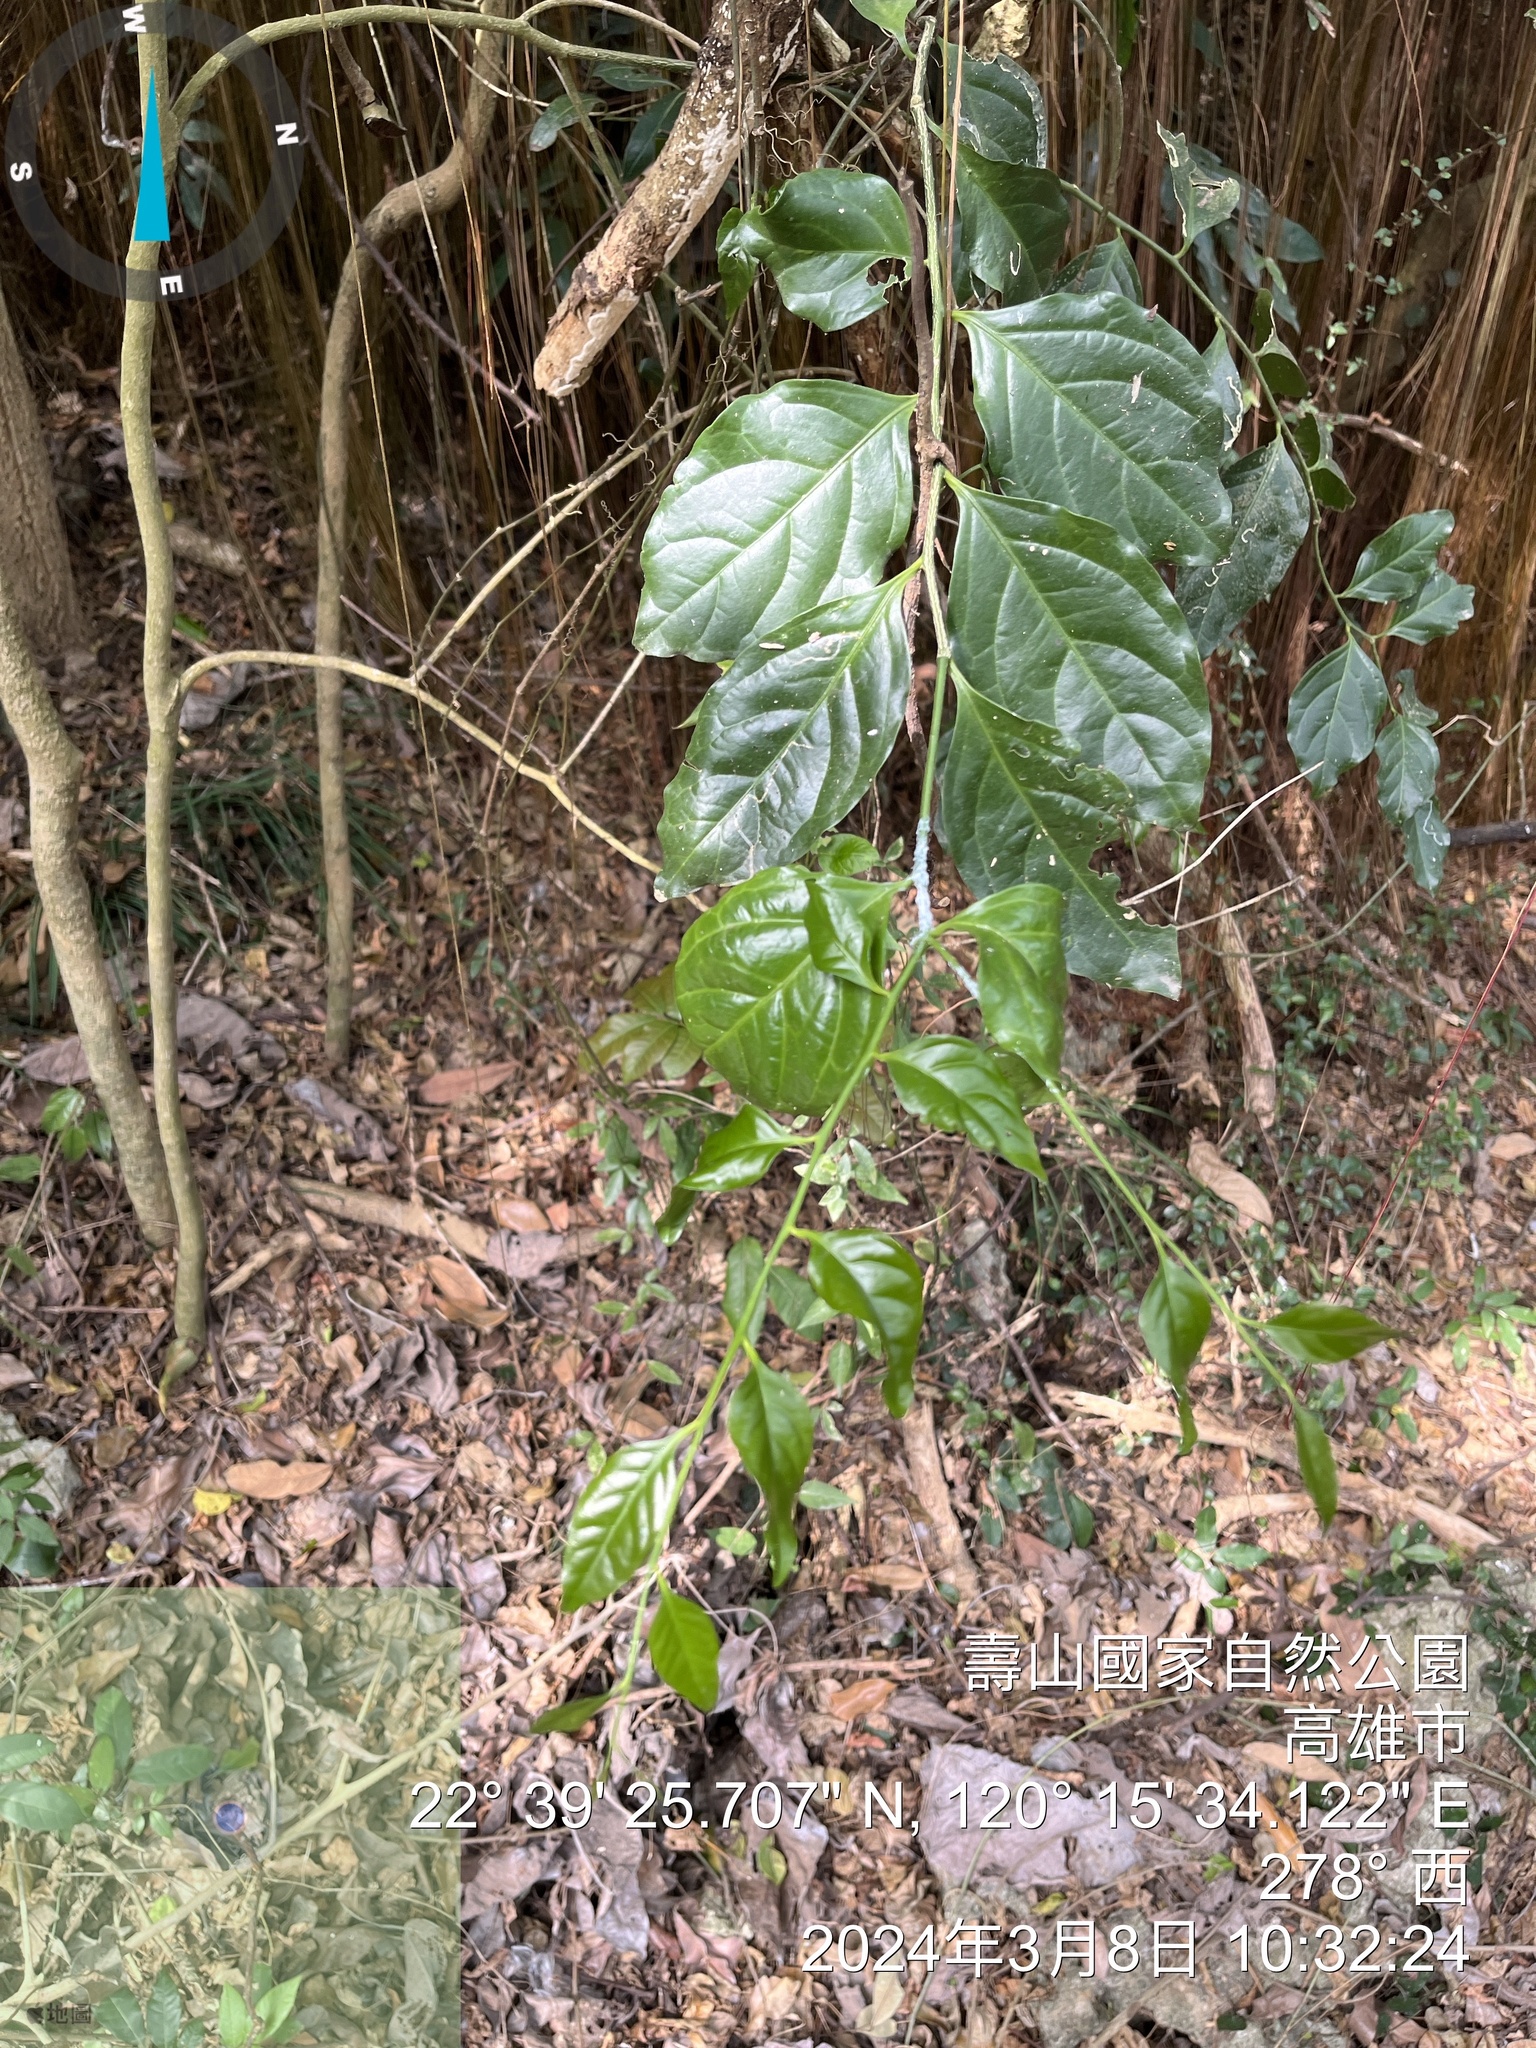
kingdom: Plantae
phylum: Tracheophyta
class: Magnoliopsida
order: Santalales
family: Opiliaceae
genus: Champereia
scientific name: Champereia manillana
